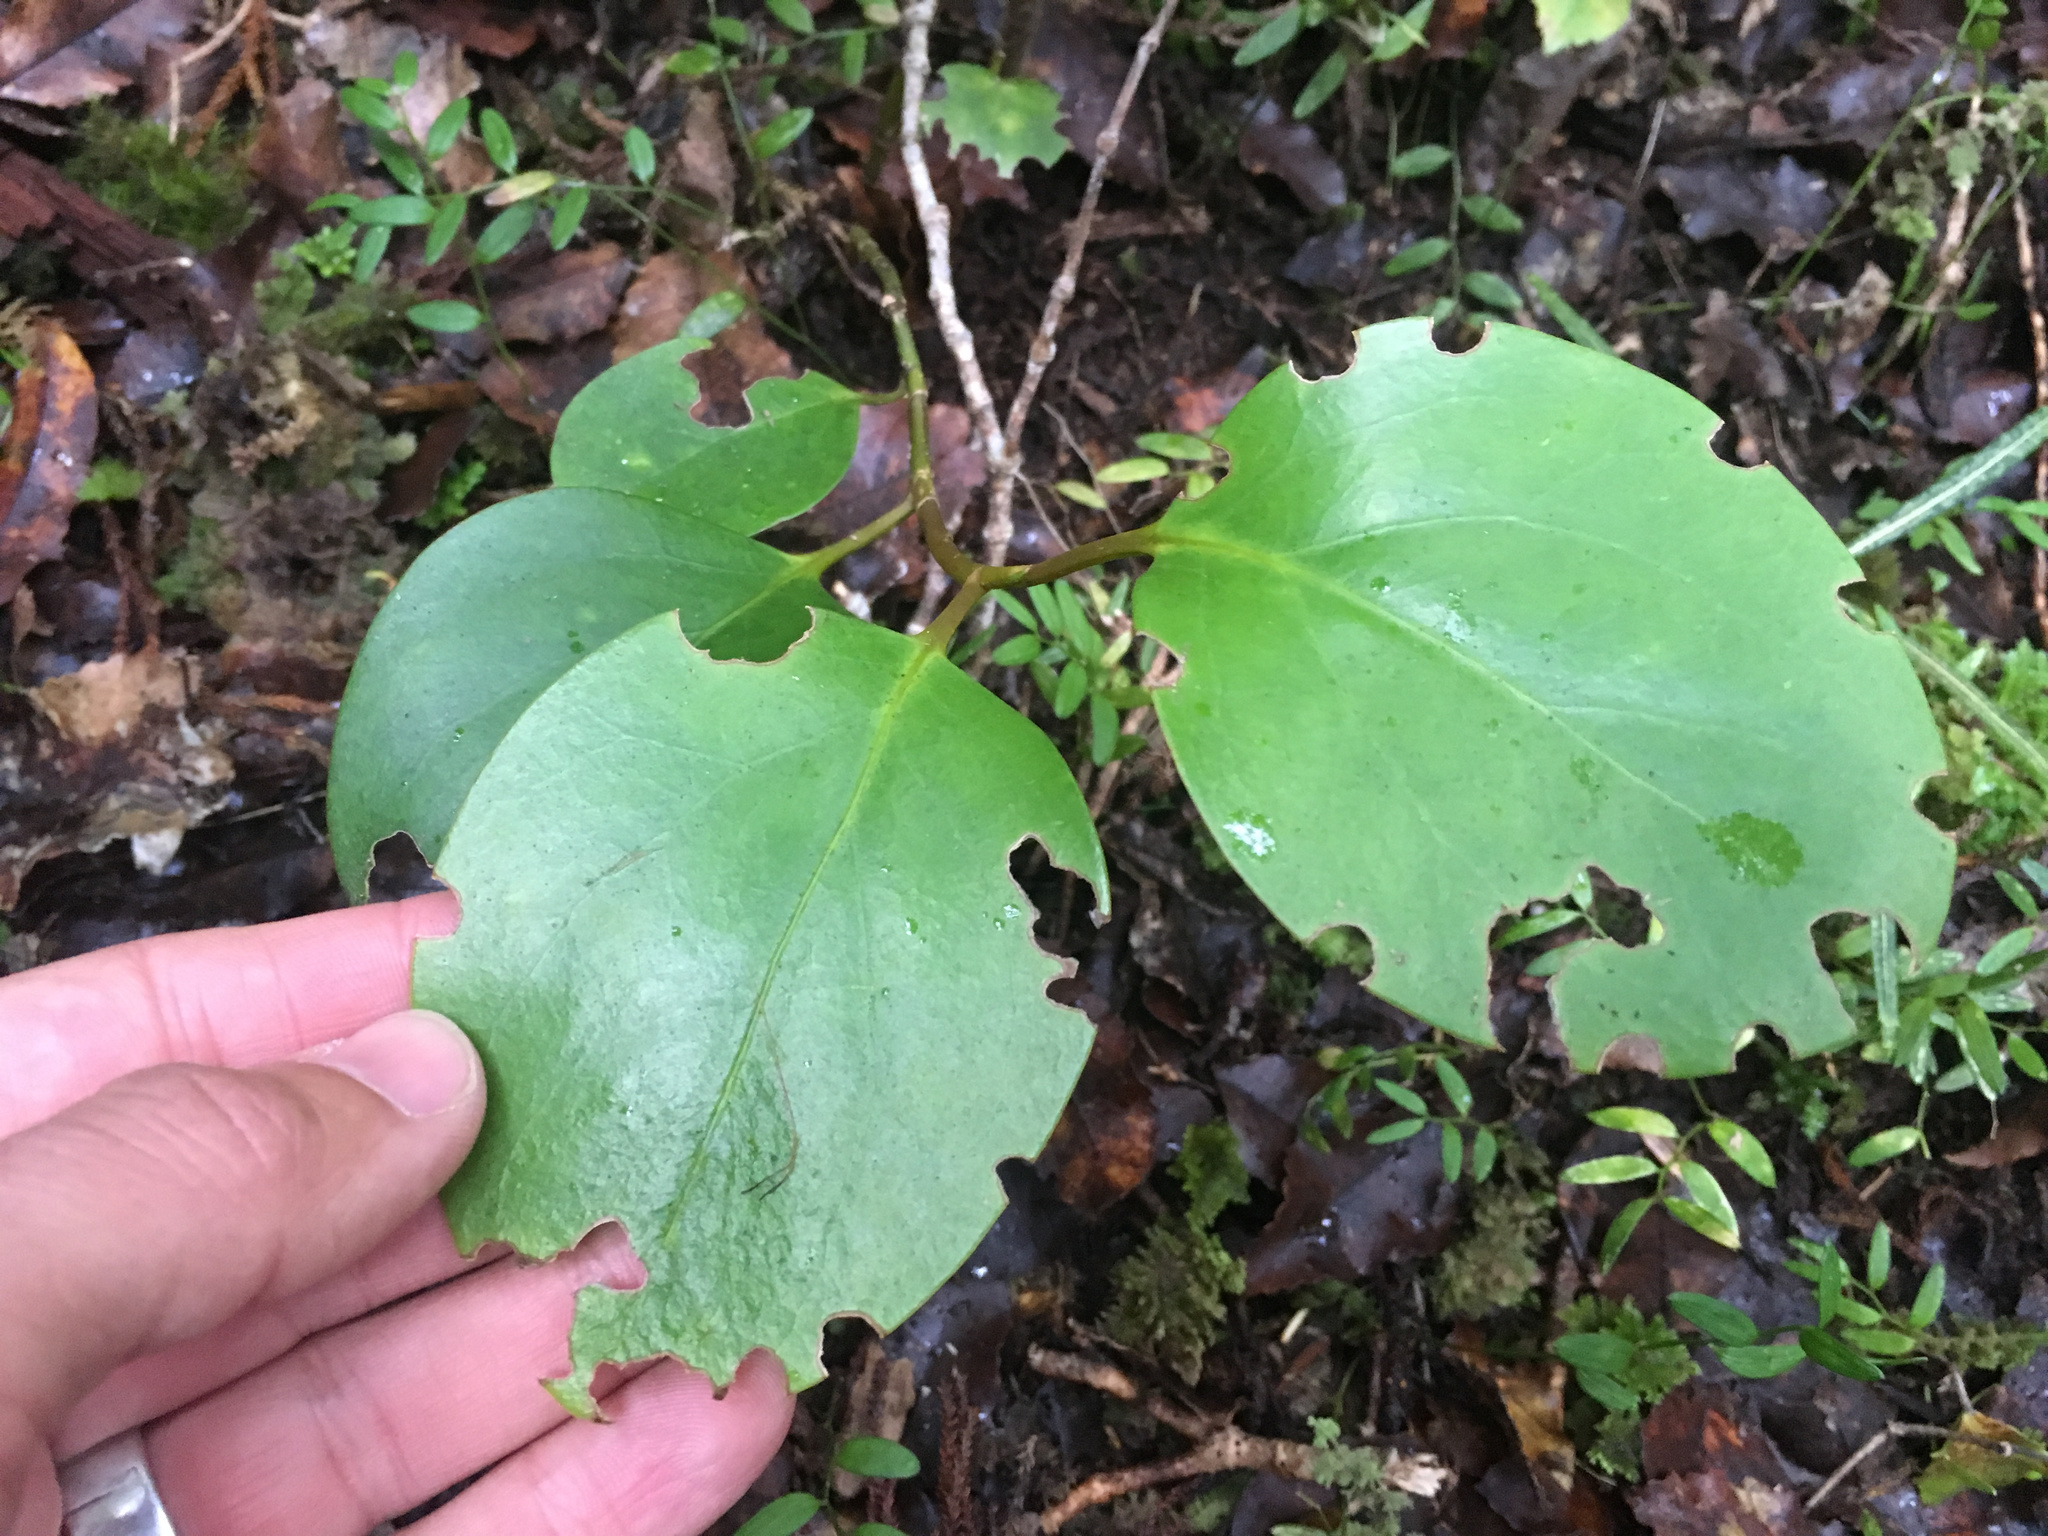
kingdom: Plantae
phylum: Tracheophyta
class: Magnoliopsida
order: Apiales
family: Griseliniaceae
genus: Griselinia
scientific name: Griselinia littoralis
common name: New zealand broadleaf
